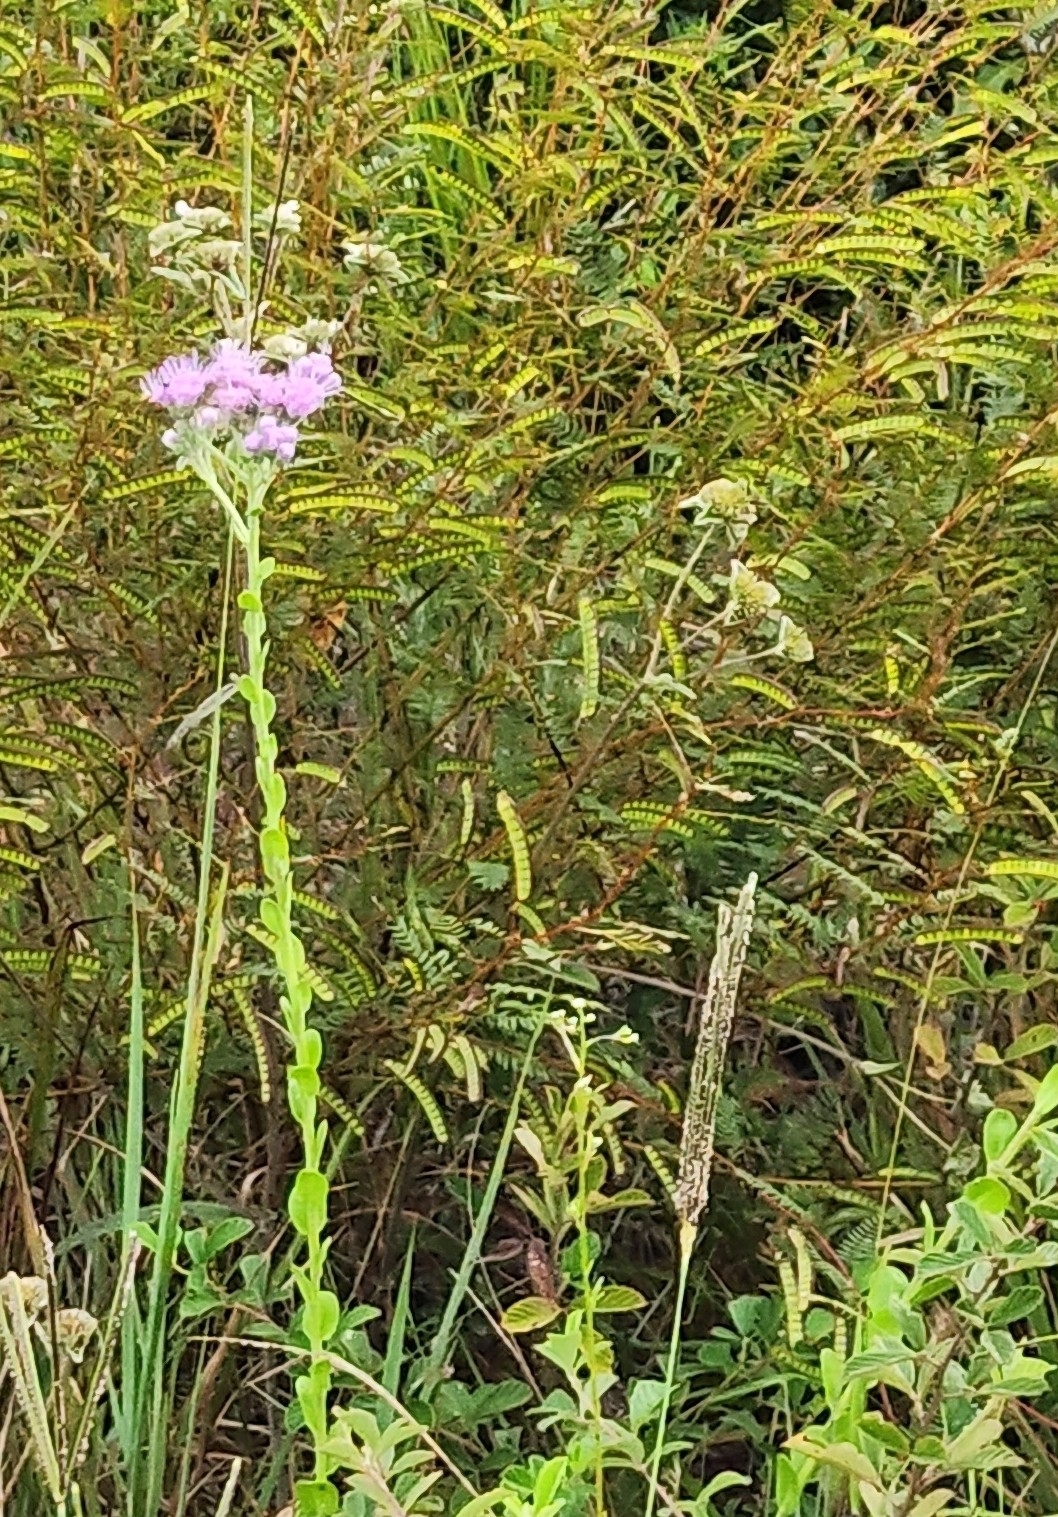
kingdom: Plantae
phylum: Tracheophyta
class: Magnoliopsida
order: Asterales
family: Asteraceae
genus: Carphephorus
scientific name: Carphephorus corymbosus
